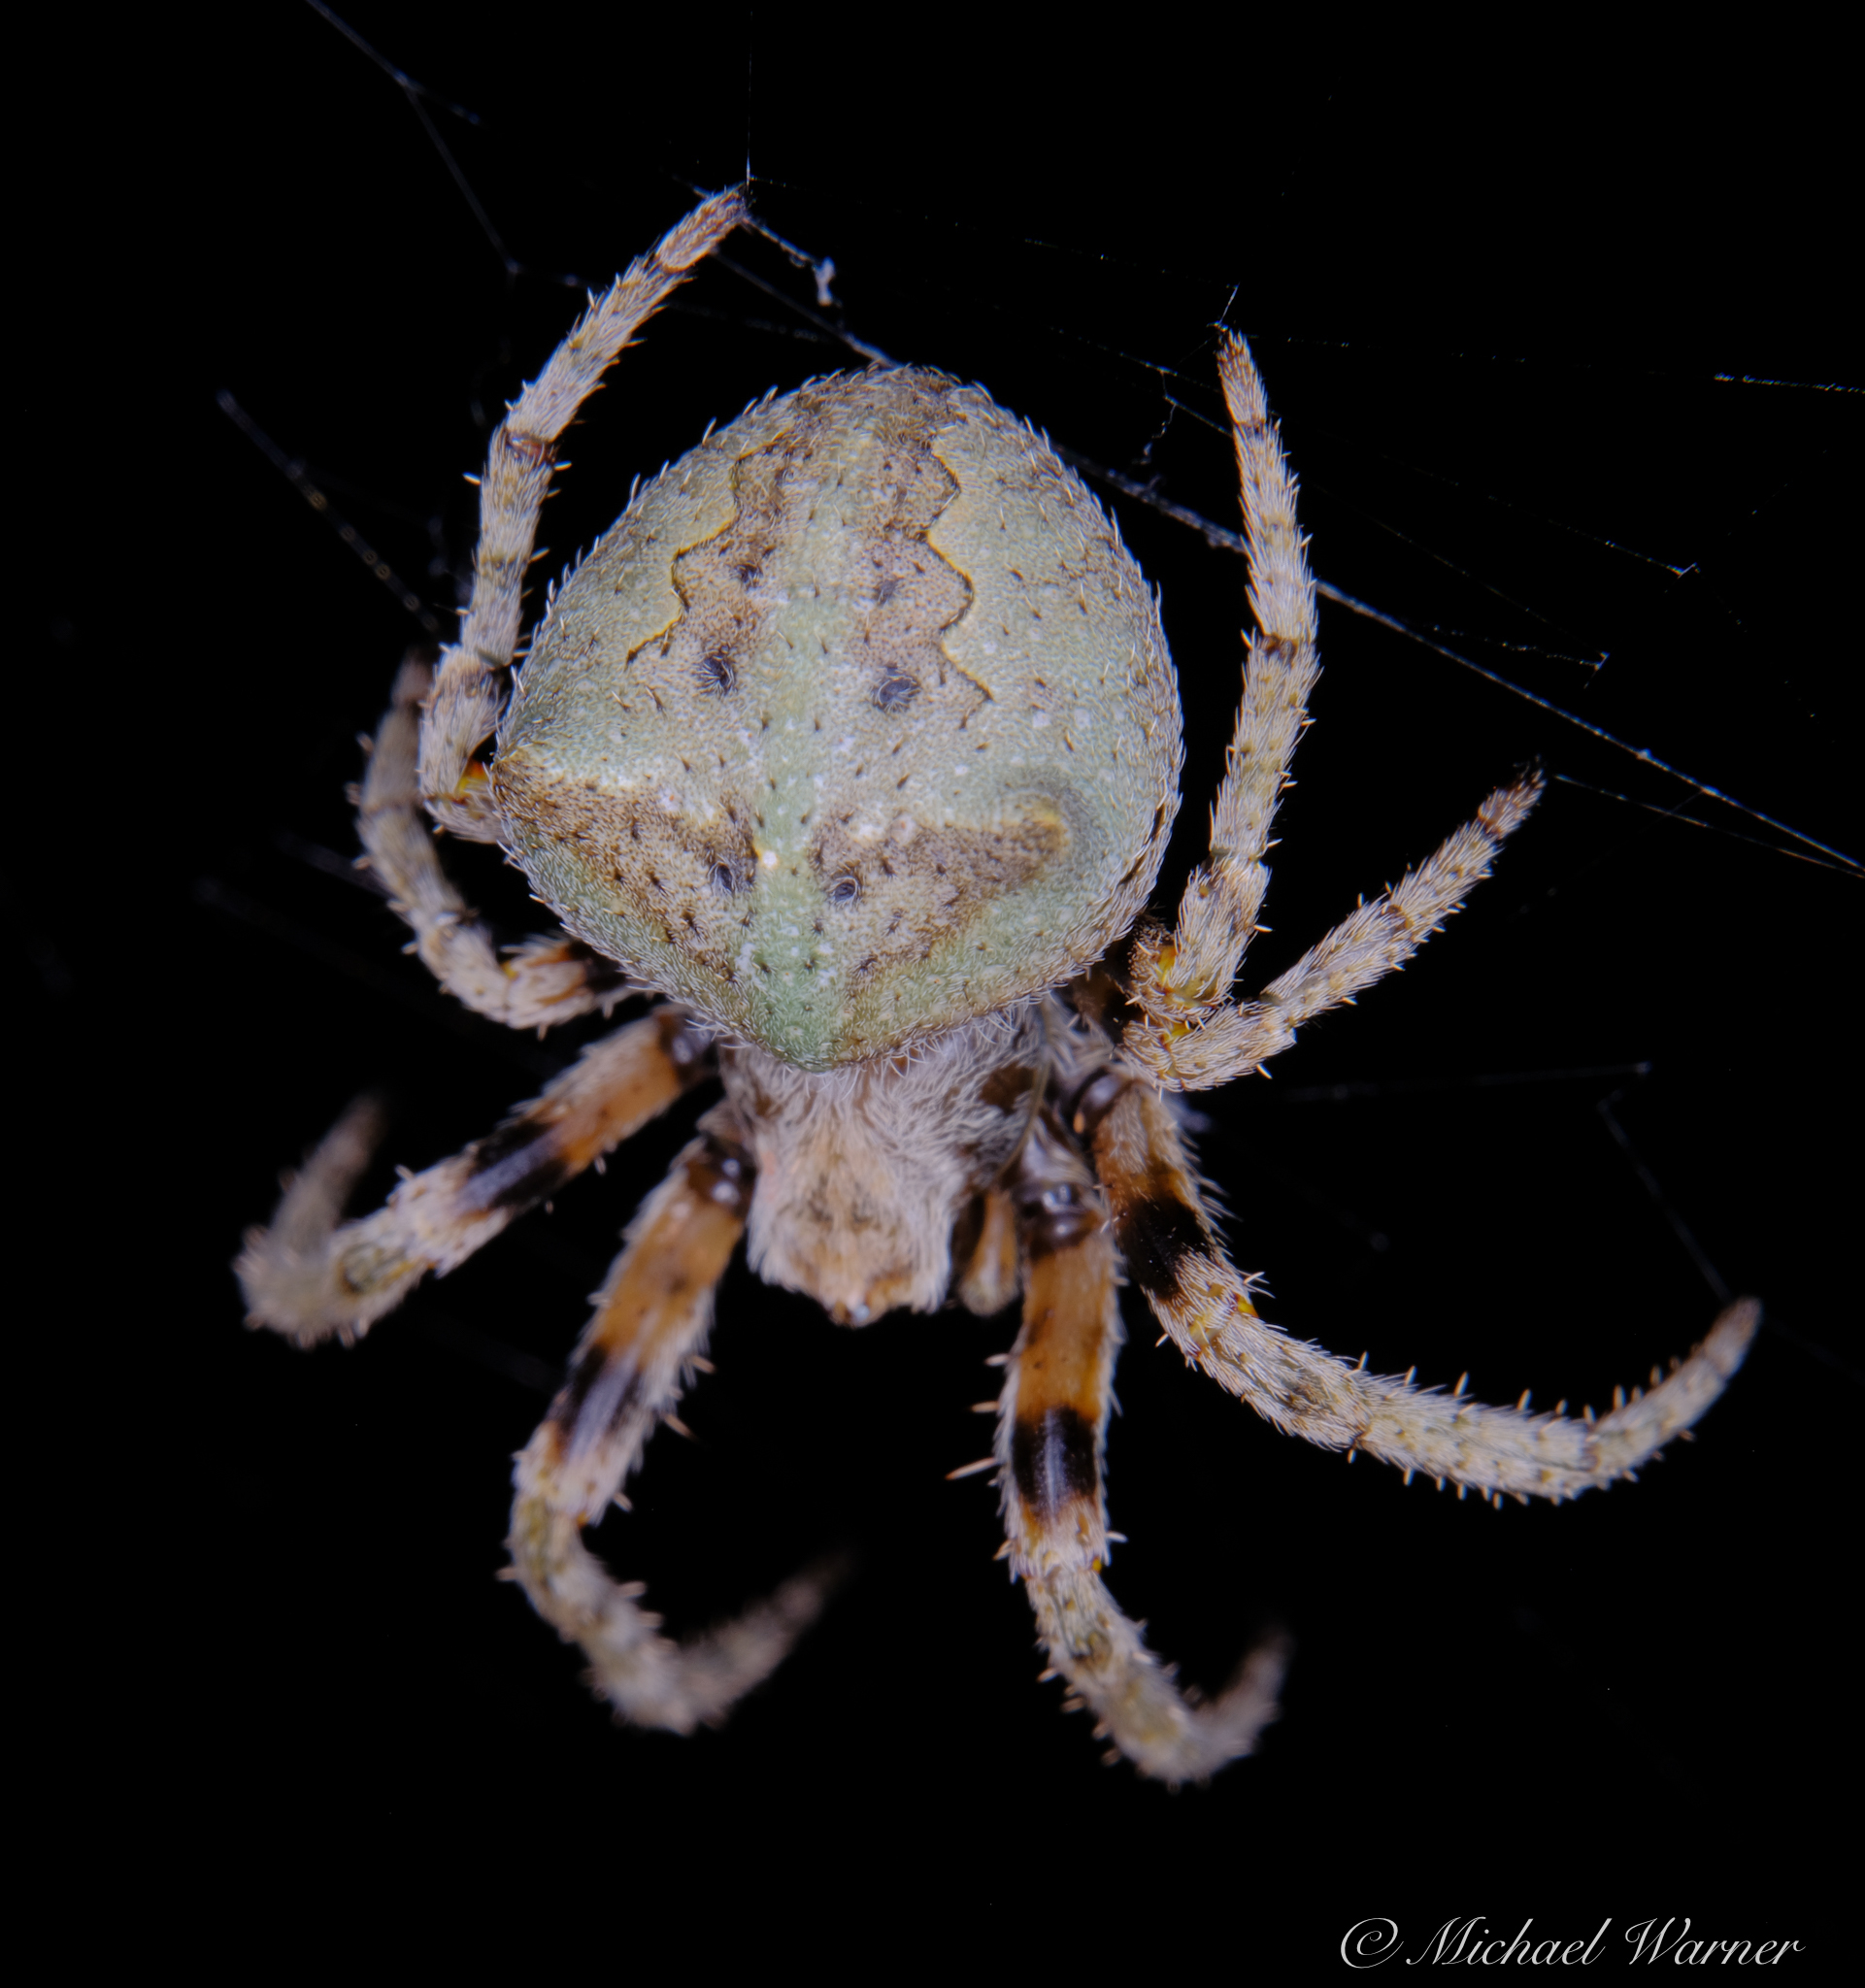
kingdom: Animalia
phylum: Arthropoda
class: Arachnida
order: Araneae
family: Araneidae
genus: Araneus
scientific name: Araneus andrewsi
